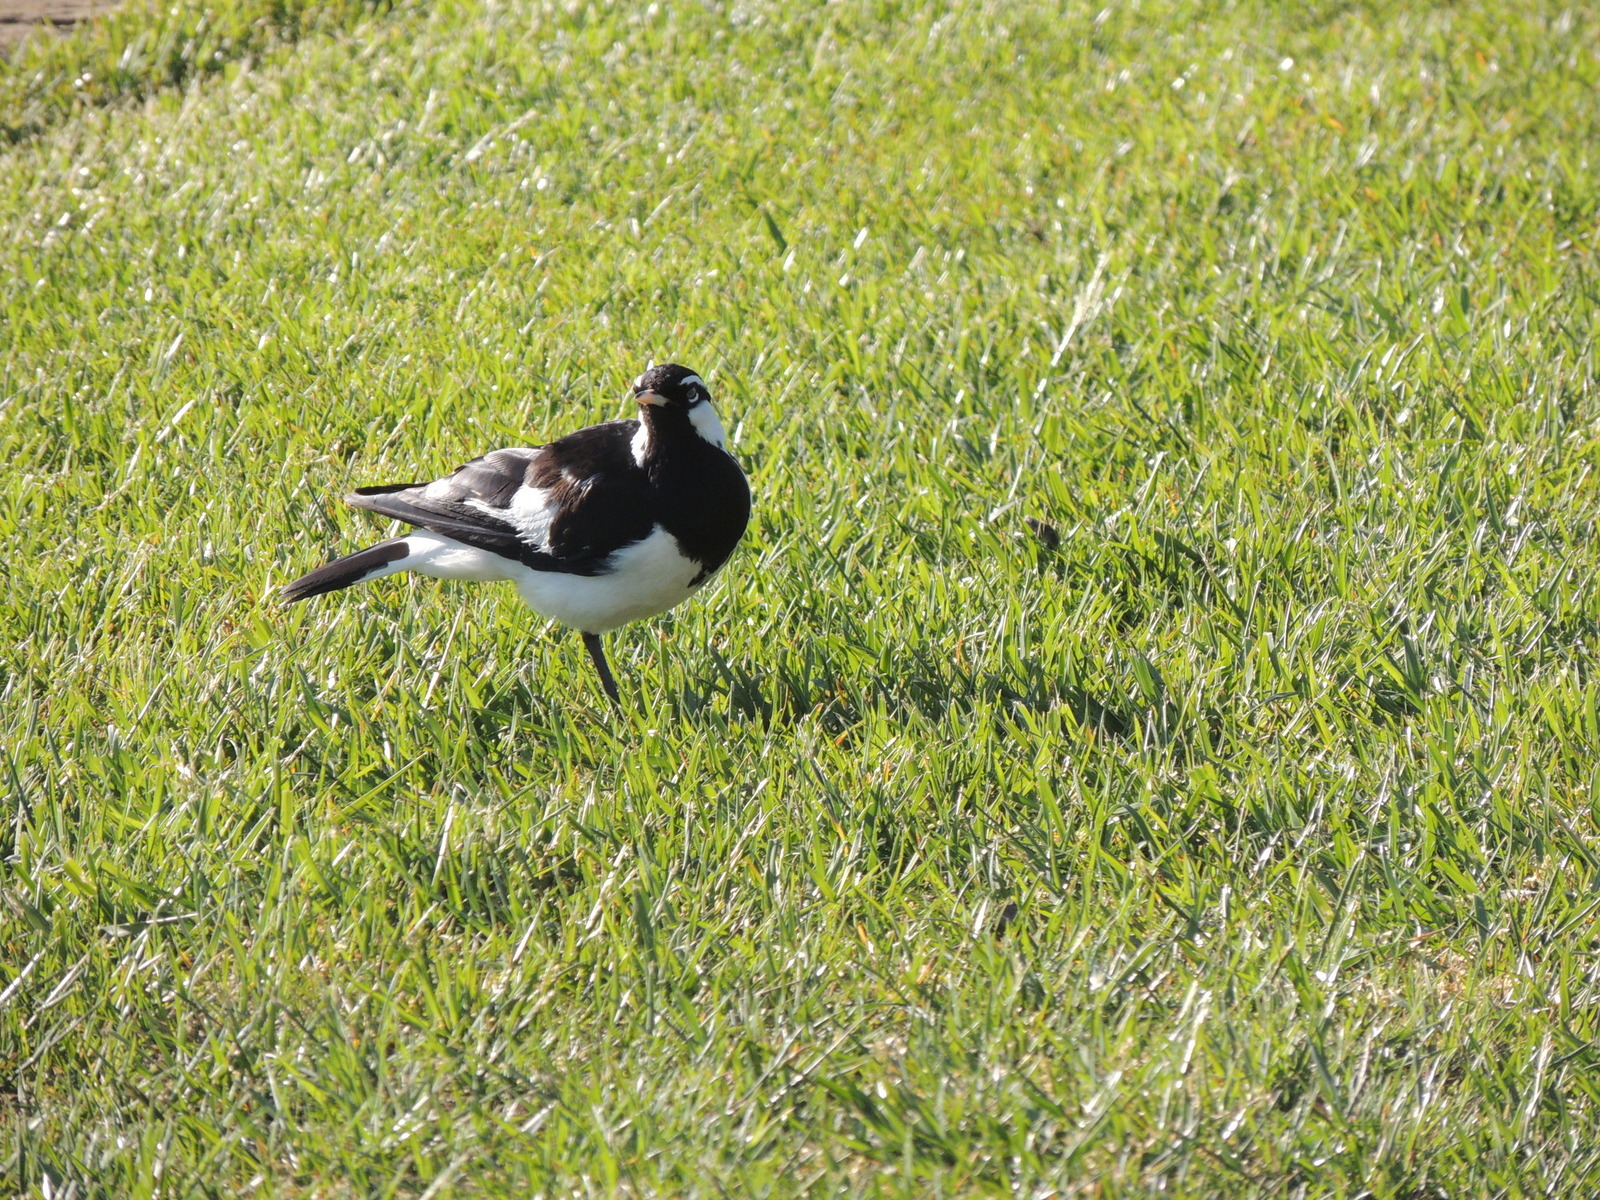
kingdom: Animalia
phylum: Chordata
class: Aves
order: Passeriformes
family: Monarchidae
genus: Grallina
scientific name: Grallina cyanoleuca
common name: Magpie-lark
